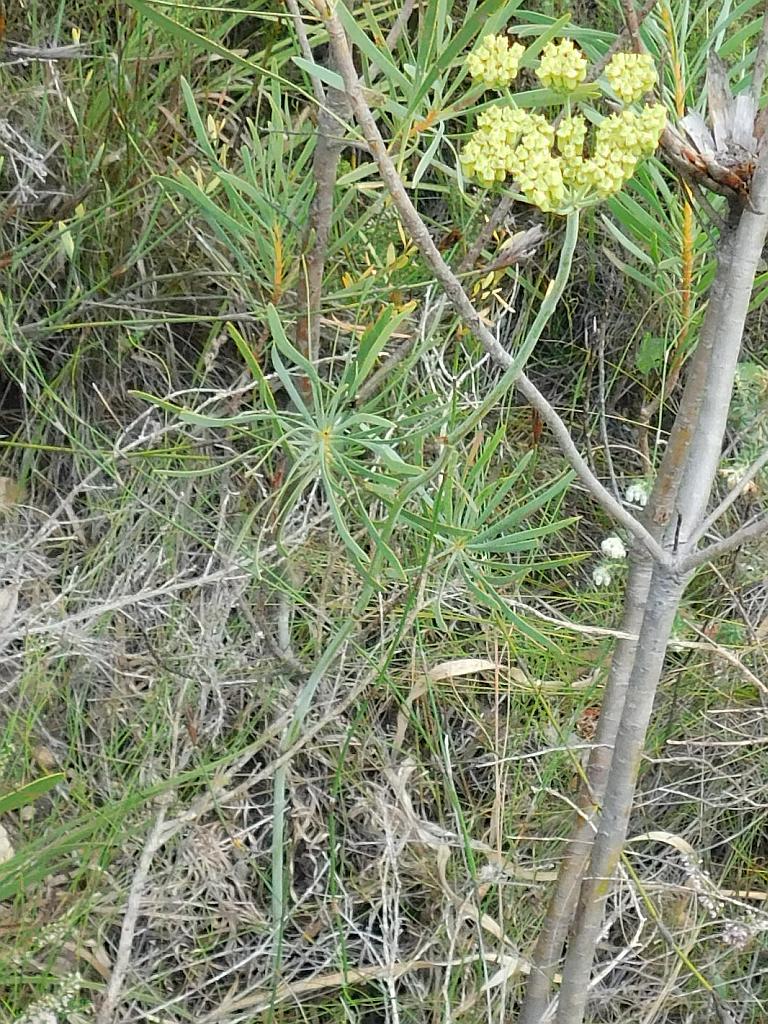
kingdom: Plantae
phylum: Tracheophyta
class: Magnoliopsida
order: Apiales
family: Apiaceae
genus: Lichtensteinia
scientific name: Lichtensteinia trifida
